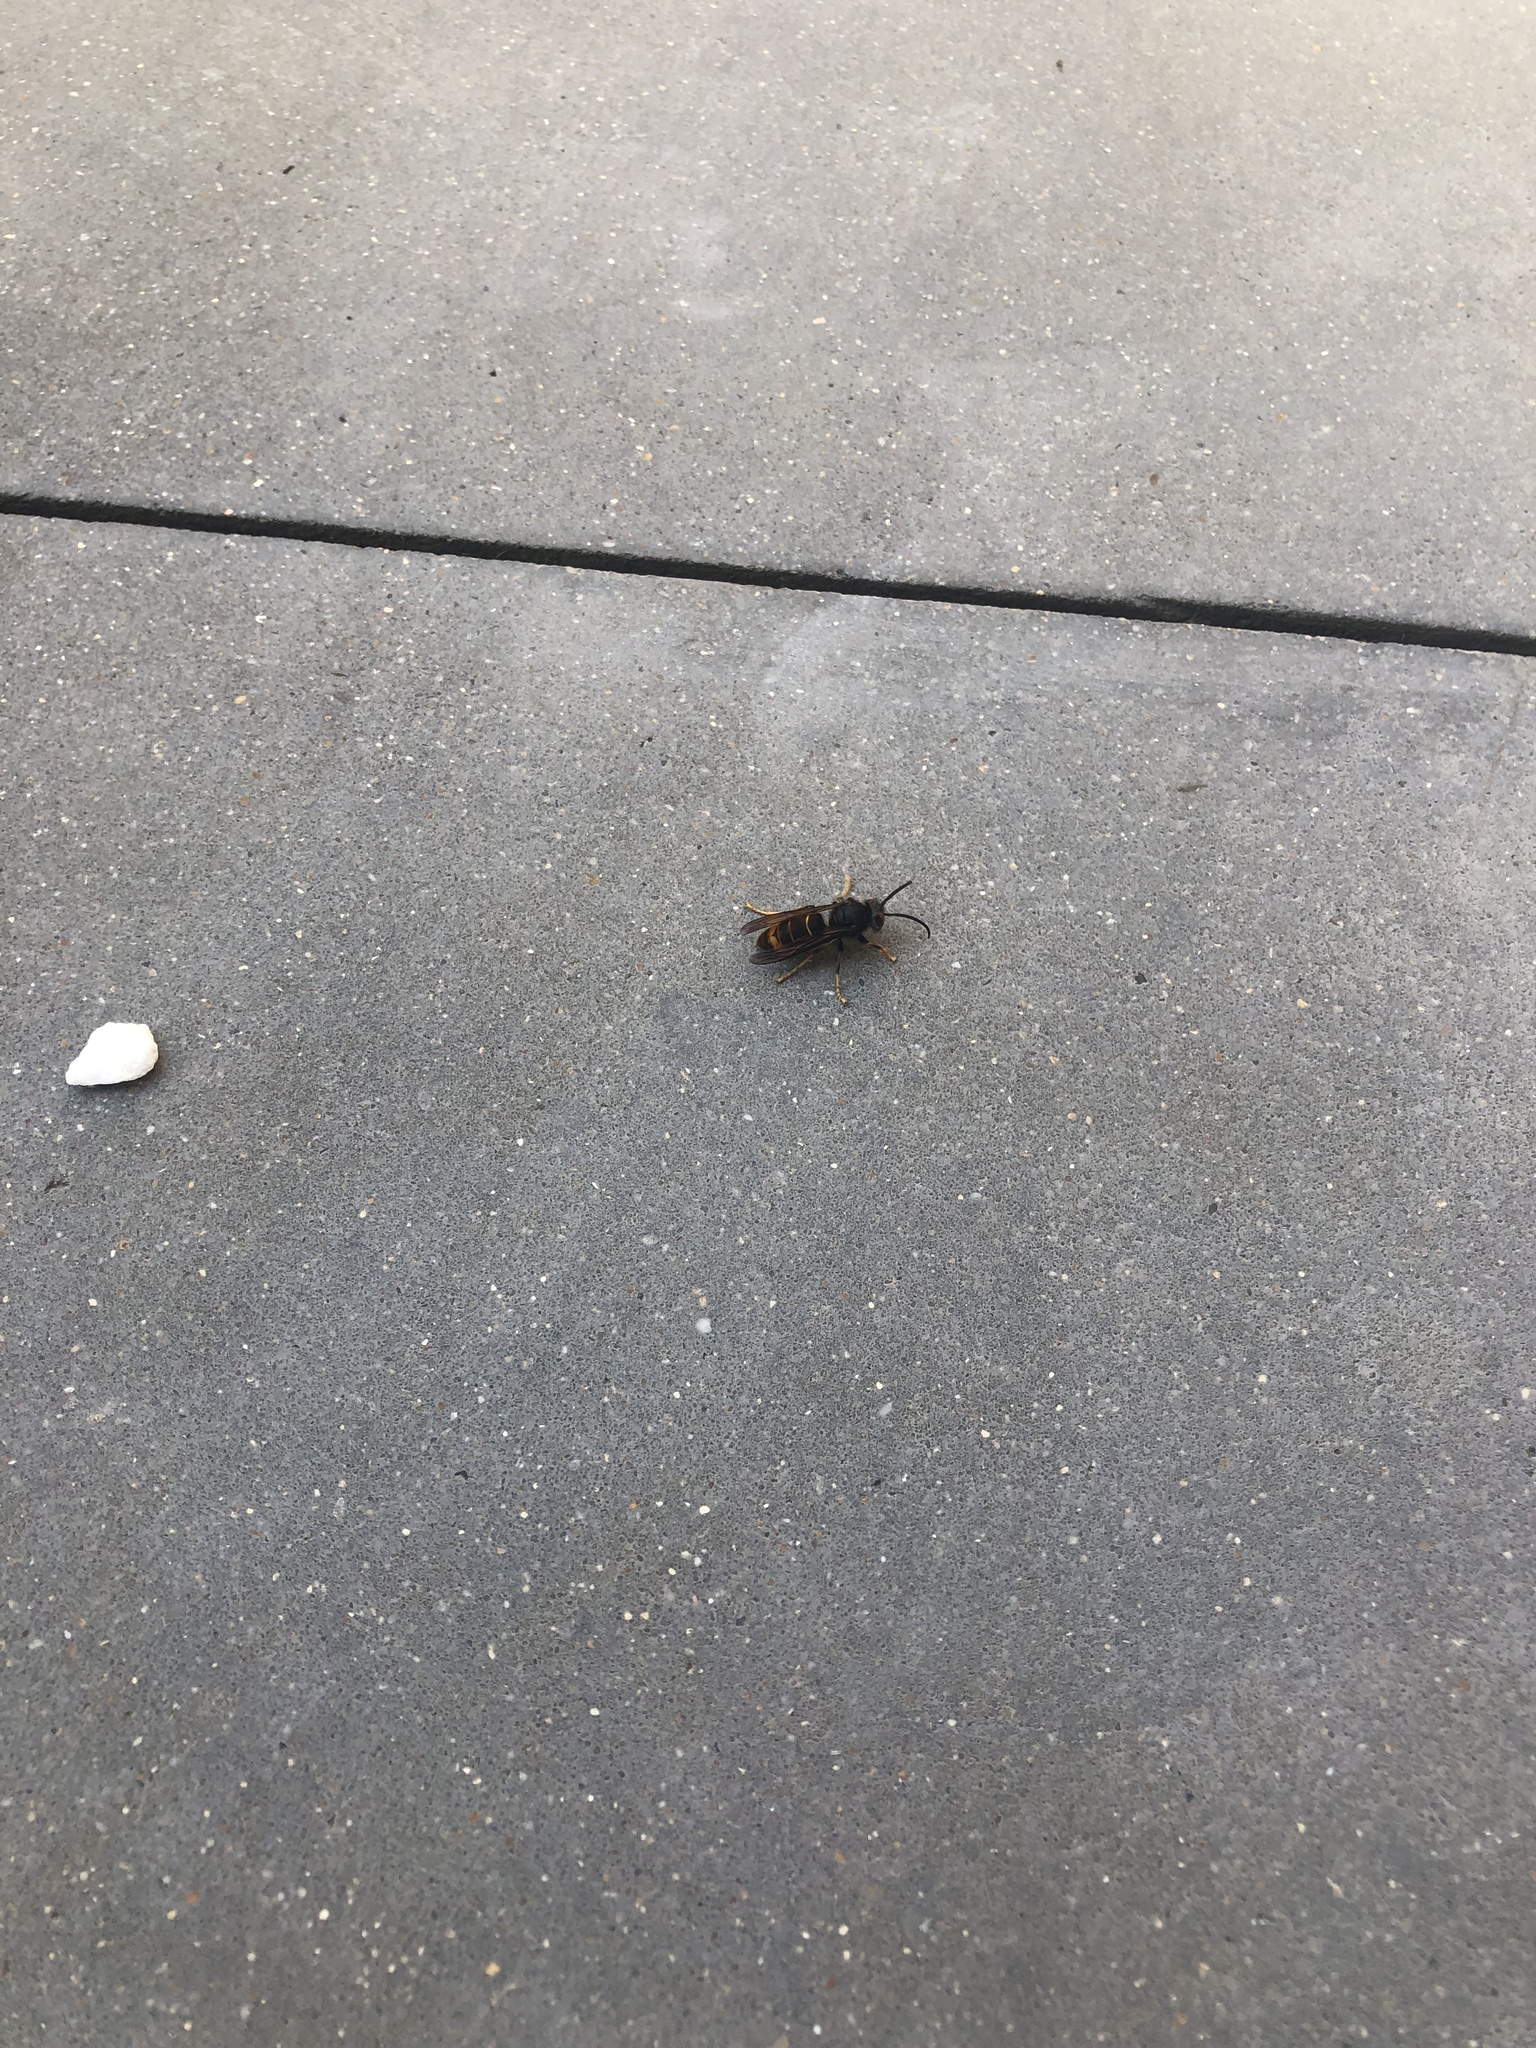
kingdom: Animalia
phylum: Arthropoda
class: Insecta
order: Hymenoptera
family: Vespidae
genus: Vespa
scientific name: Vespa velutina
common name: Asian hornet
